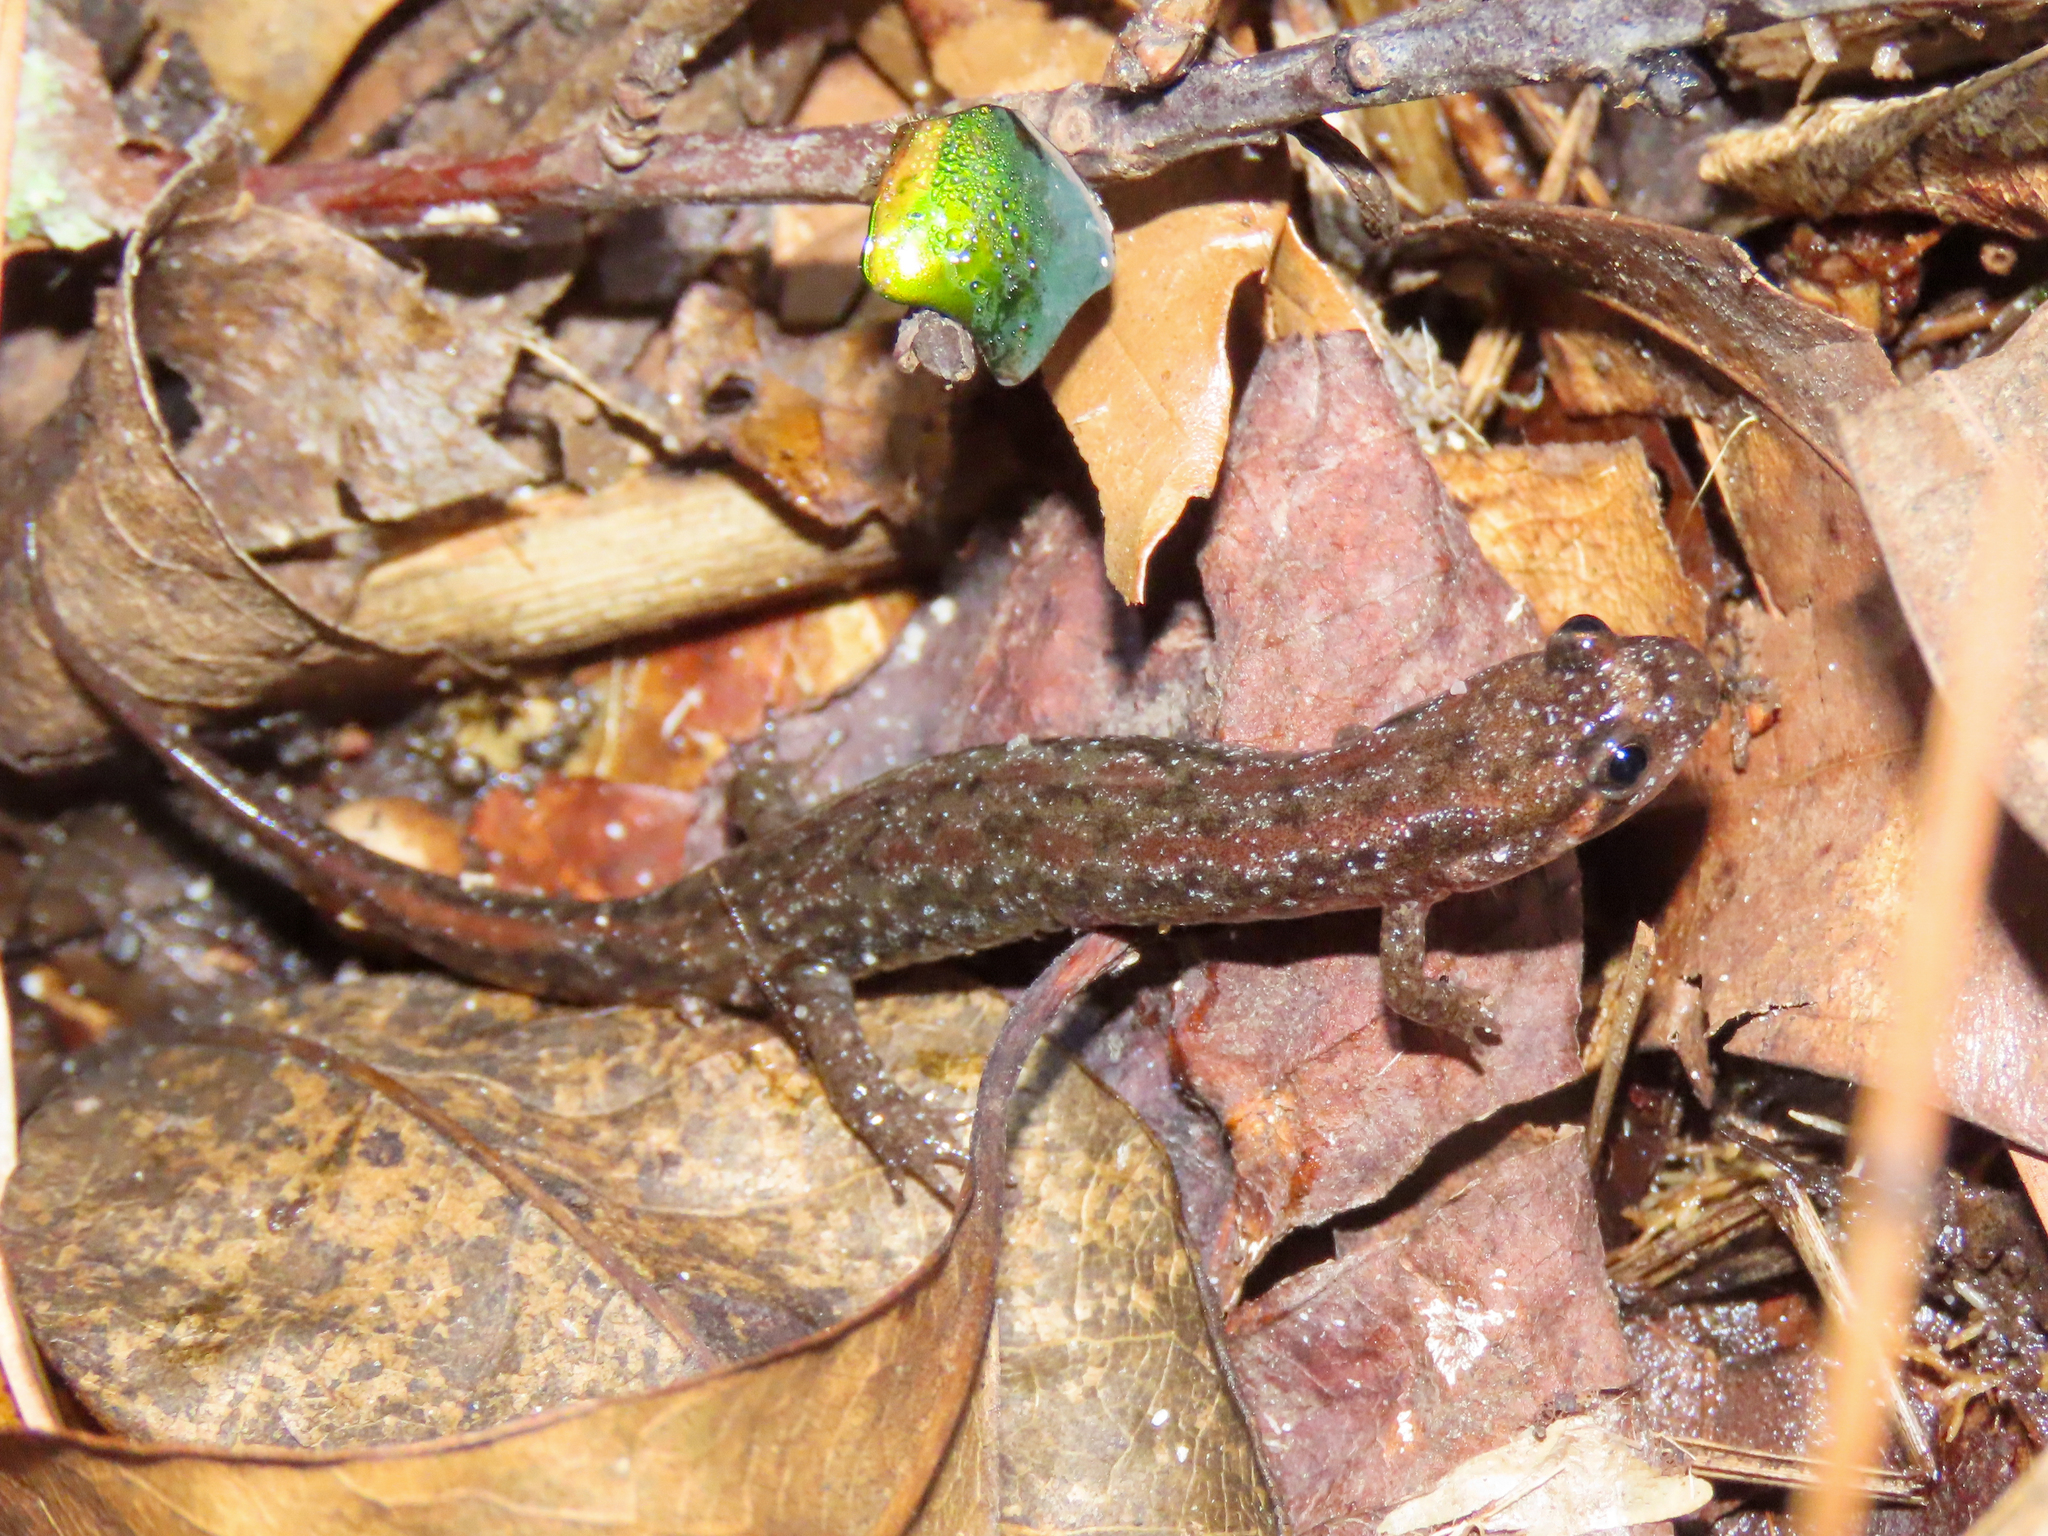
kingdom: Animalia
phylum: Chordata
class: Amphibia
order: Caudata
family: Plethodontidae
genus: Desmognathus
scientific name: Desmognathus fuscus
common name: Northern dusky salamander
